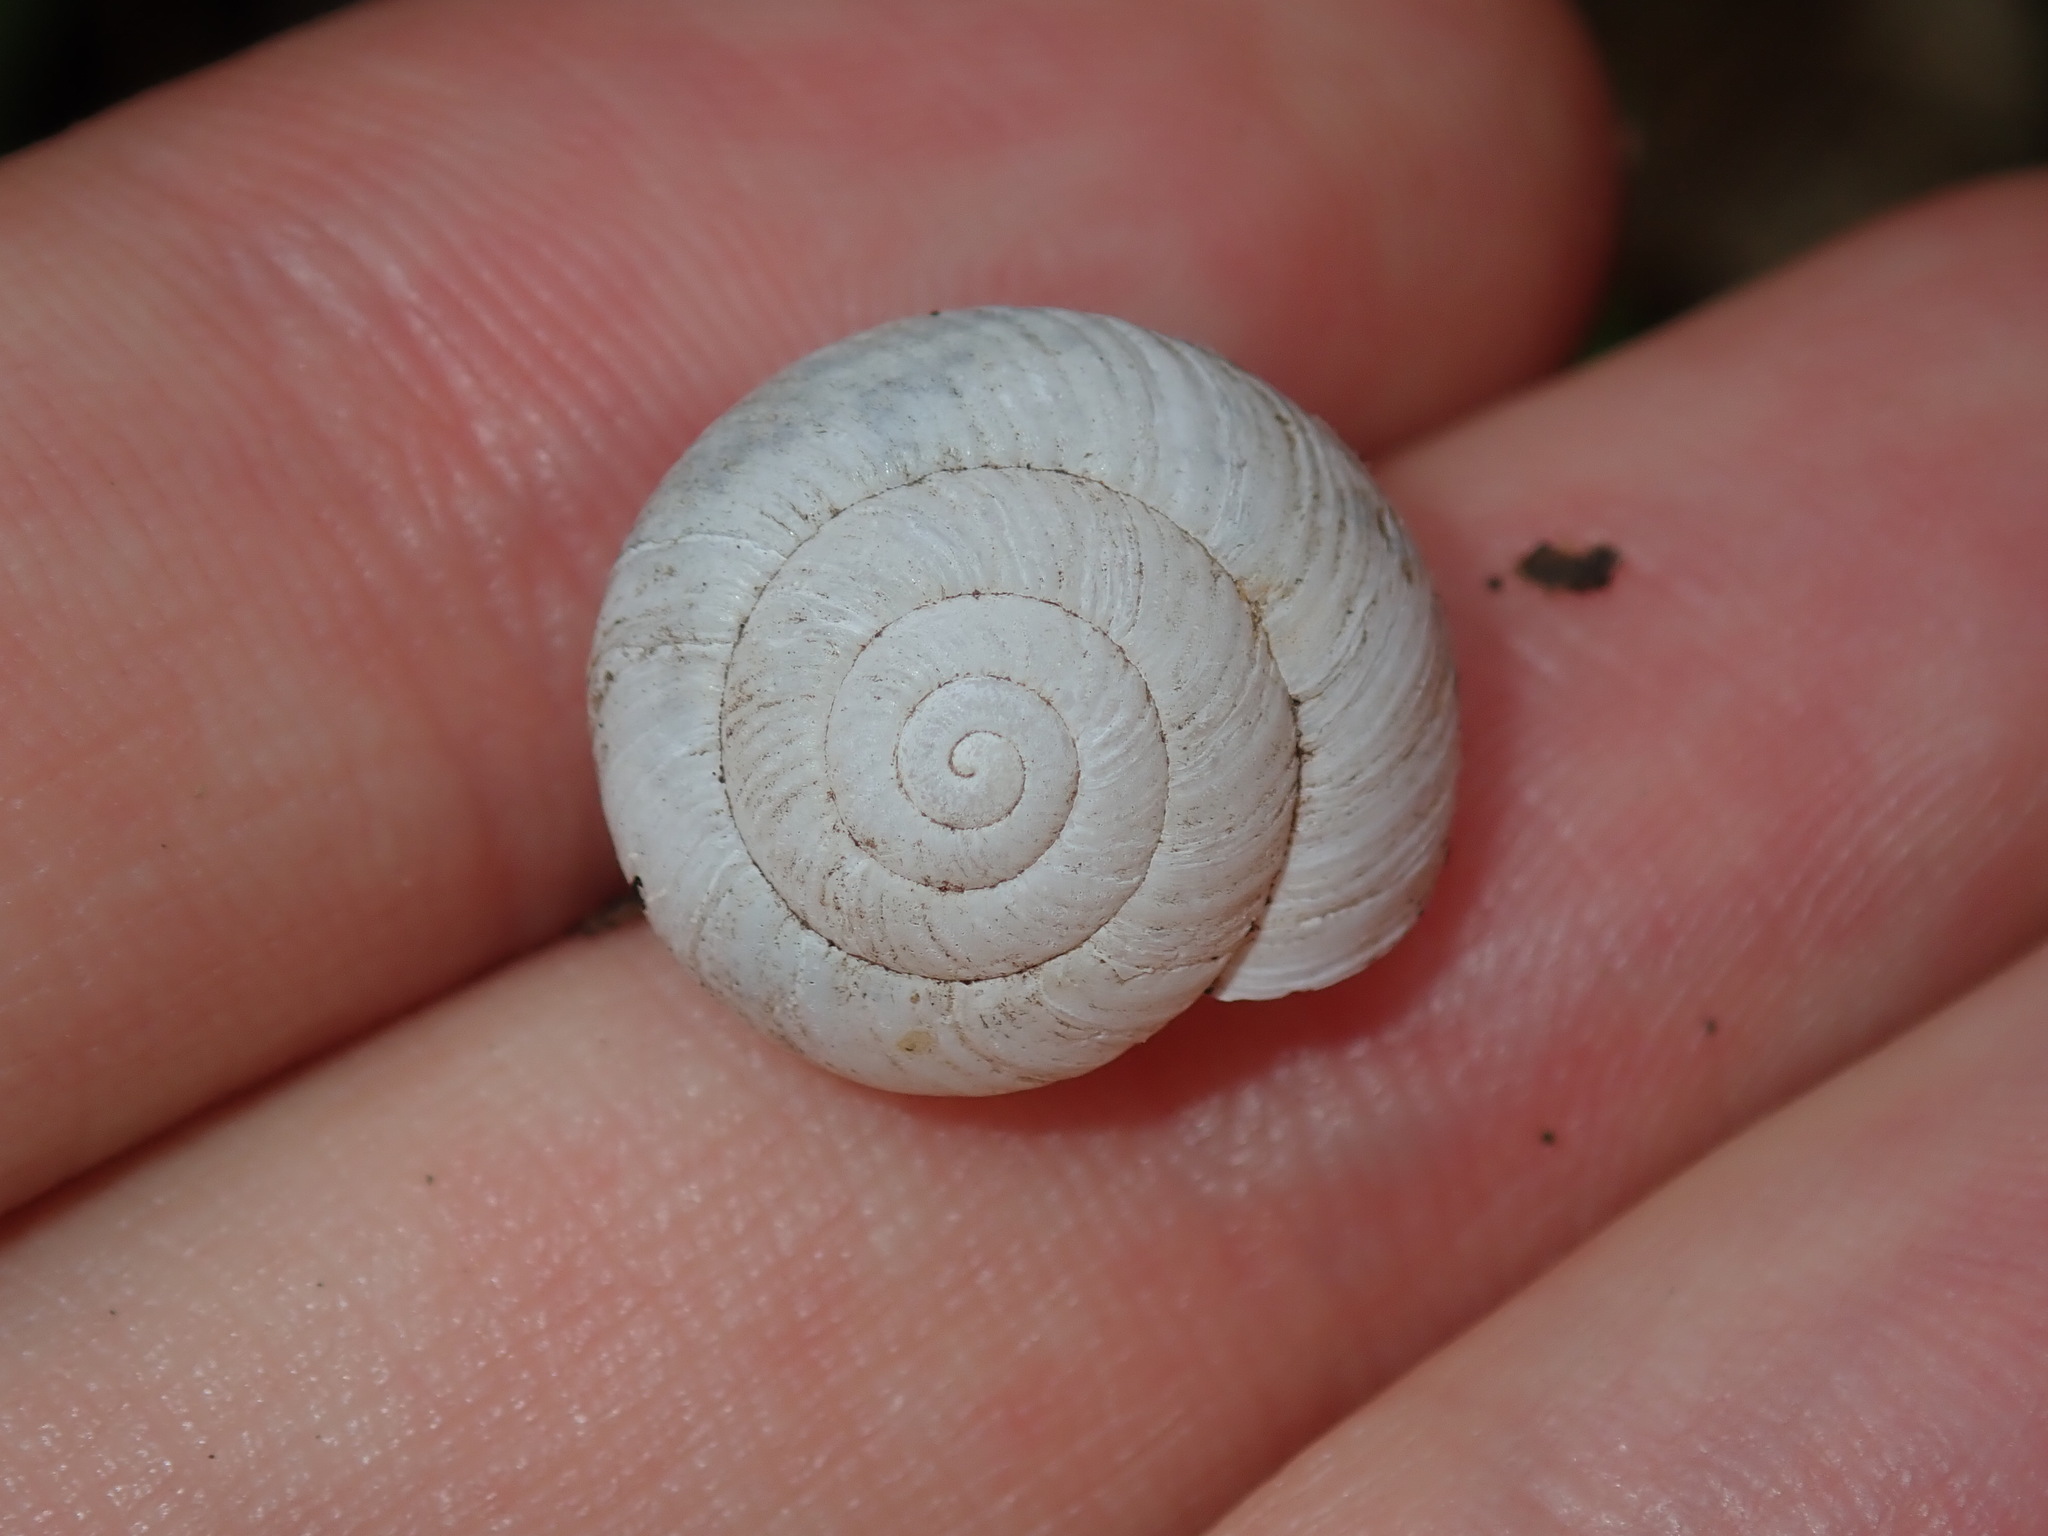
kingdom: Animalia
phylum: Mollusca
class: Gastropoda
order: Stylommatophora
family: Camaenidae
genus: Sauroconcha
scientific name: Sauroconcha sheai
